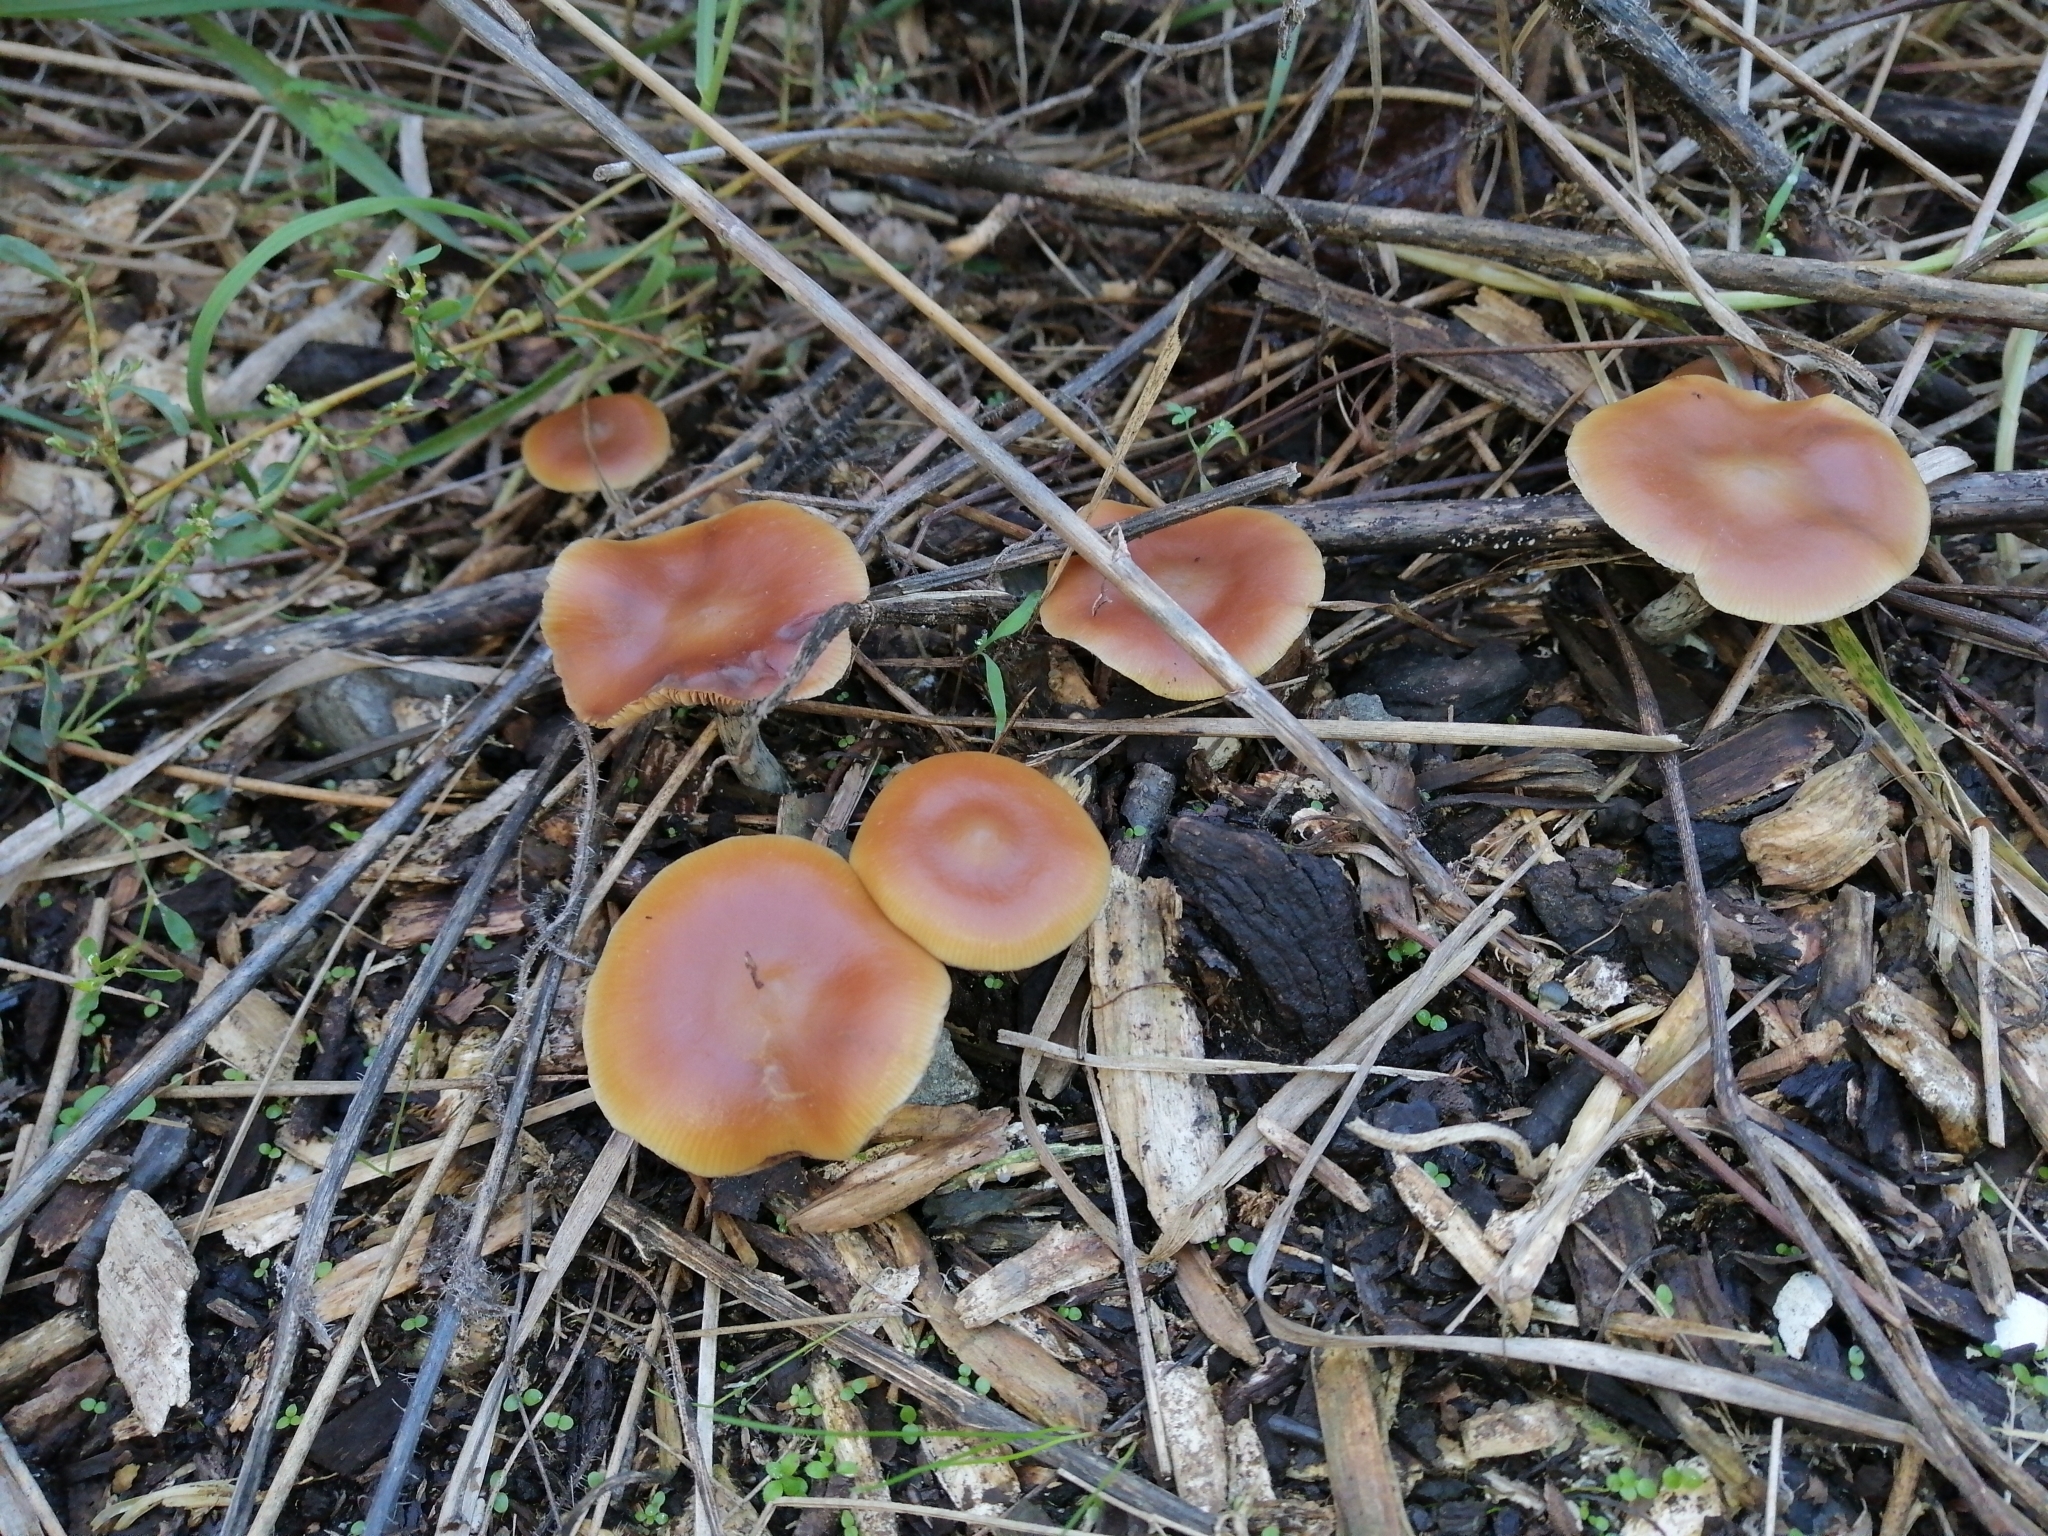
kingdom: Fungi
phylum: Basidiomycota
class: Agaricomycetes
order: Agaricales
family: Hymenogastraceae
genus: Psilocybe
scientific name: Psilocybe subaeruginosa
